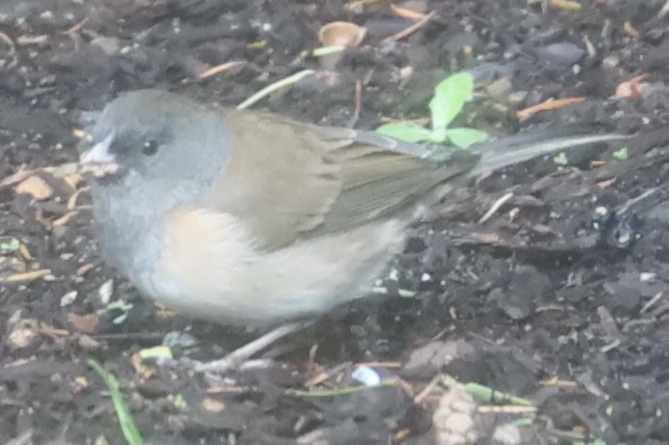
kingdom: Animalia
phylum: Chordata
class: Aves
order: Passeriformes
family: Passerellidae
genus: Junco
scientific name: Junco hyemalis
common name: Dark-eyed junco
